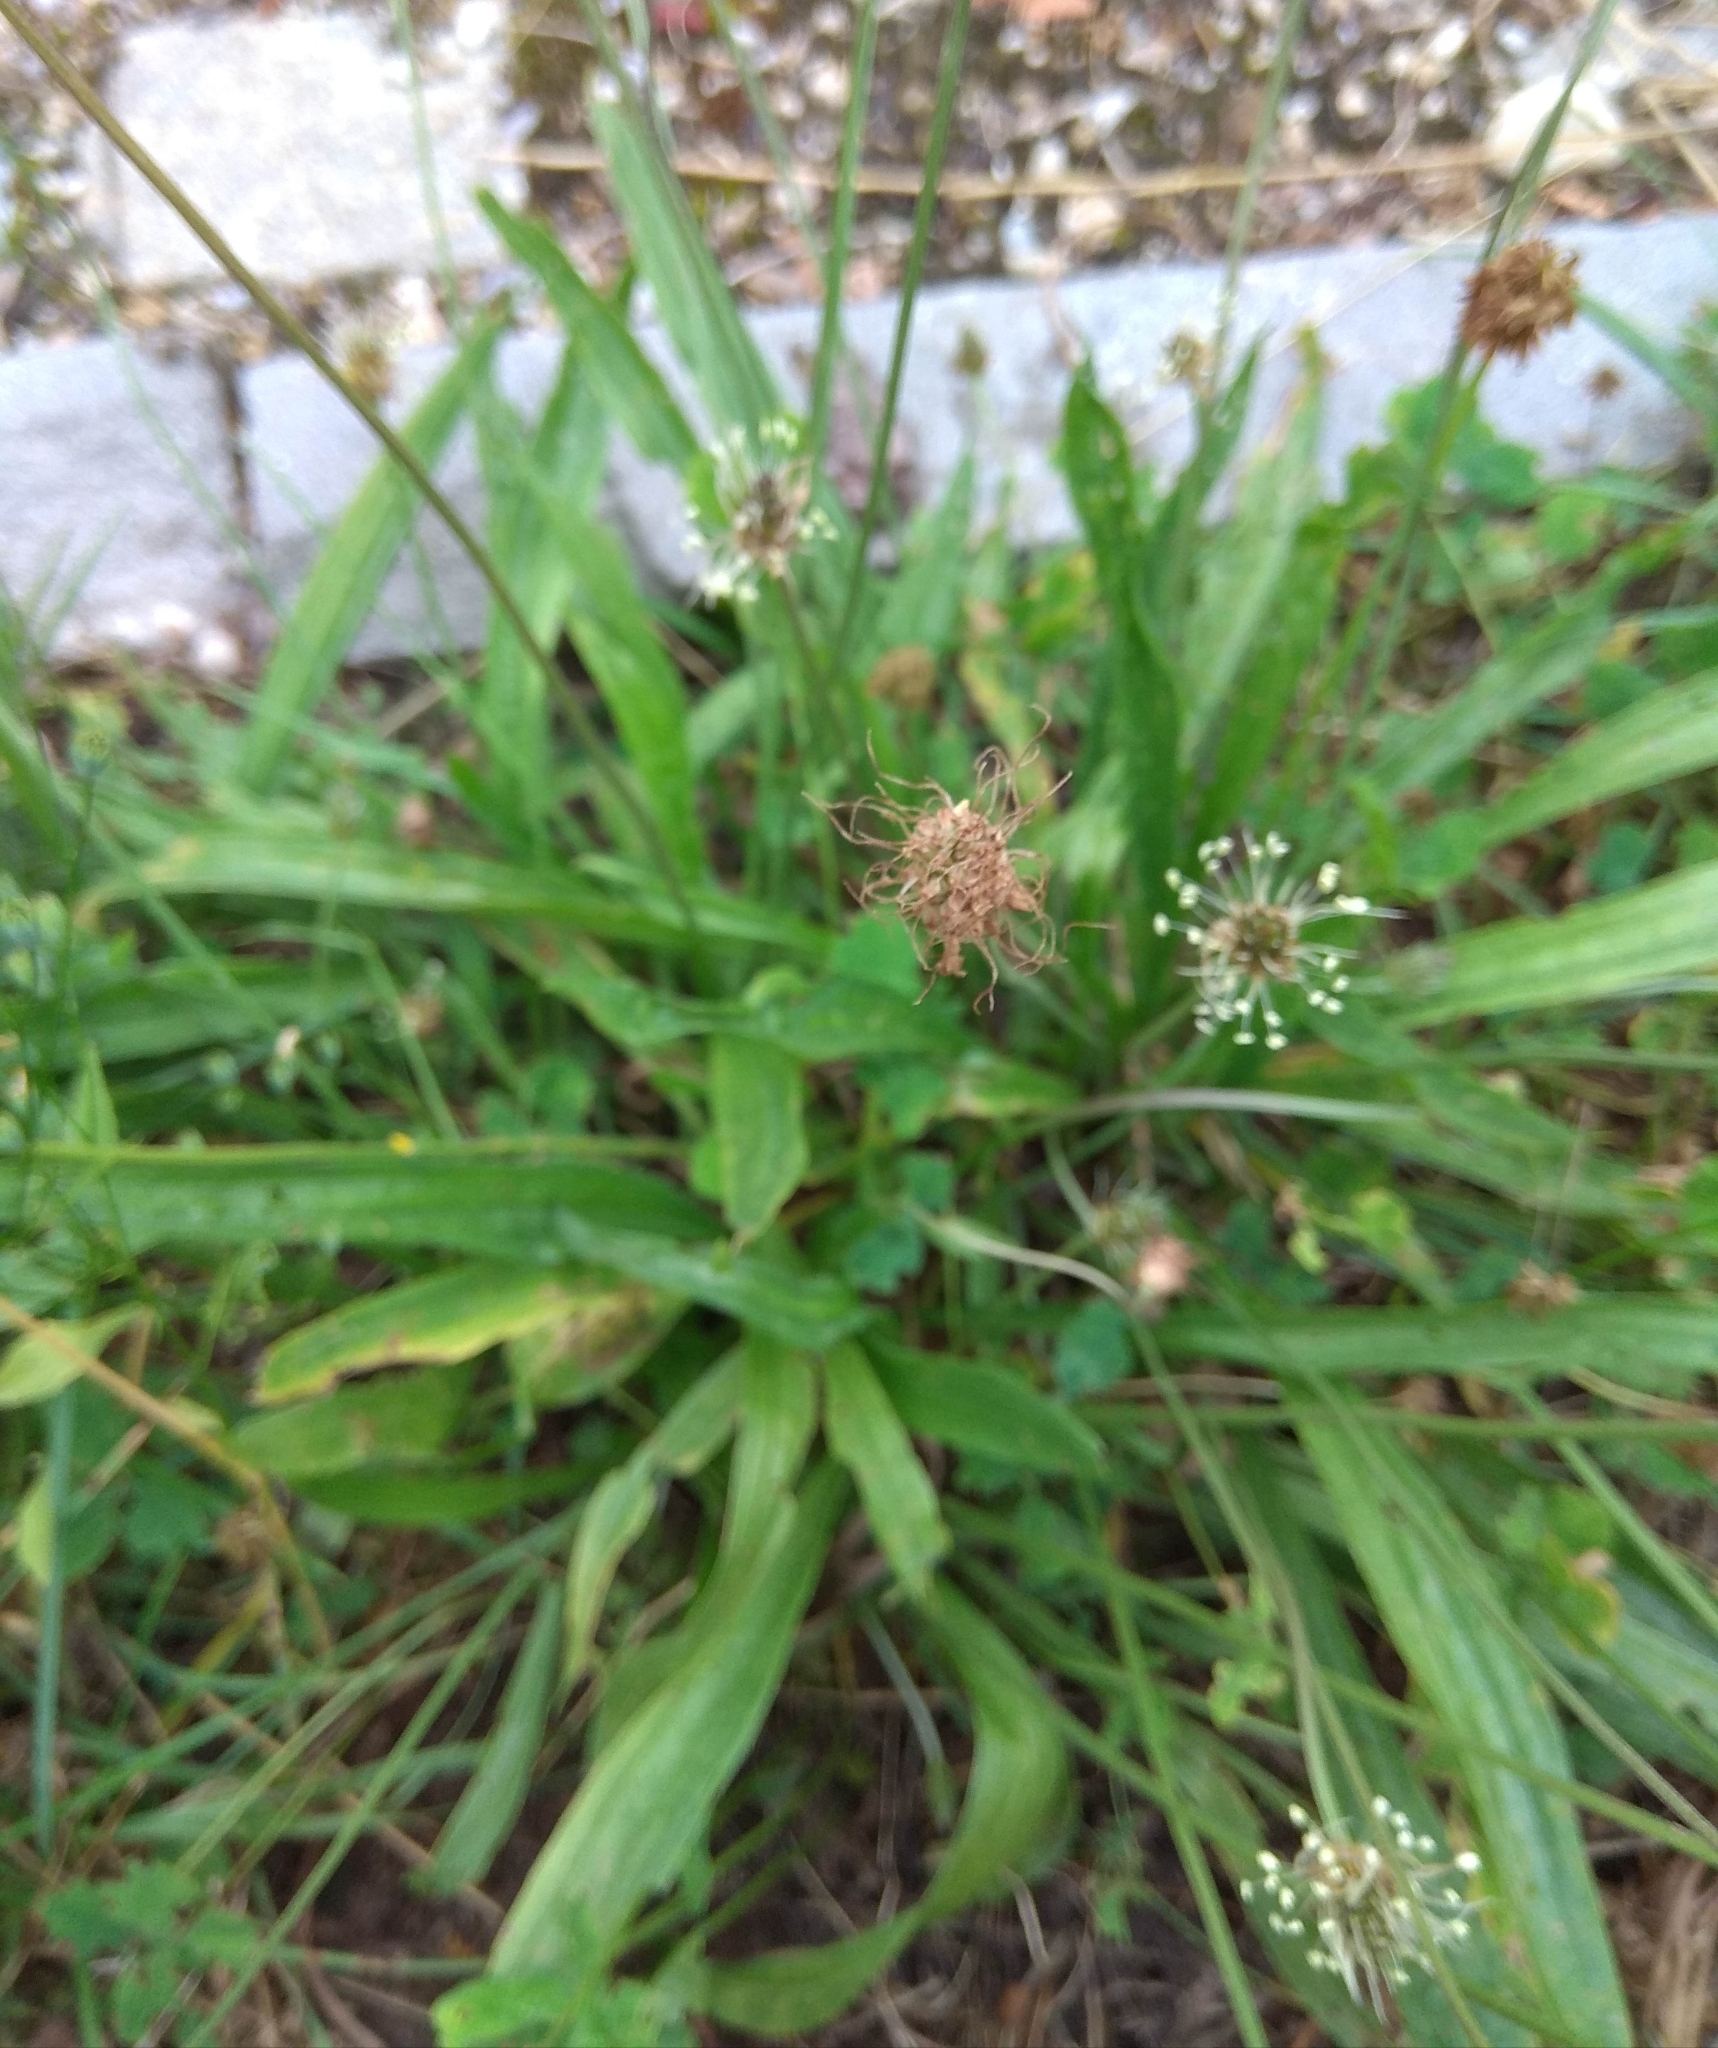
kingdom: Plantae
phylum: Tracheophyta
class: Magnoliopsida
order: Lamiales
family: Plantaginaceae
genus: Plantago
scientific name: Plantago lanceolata
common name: Ribwort plantain
